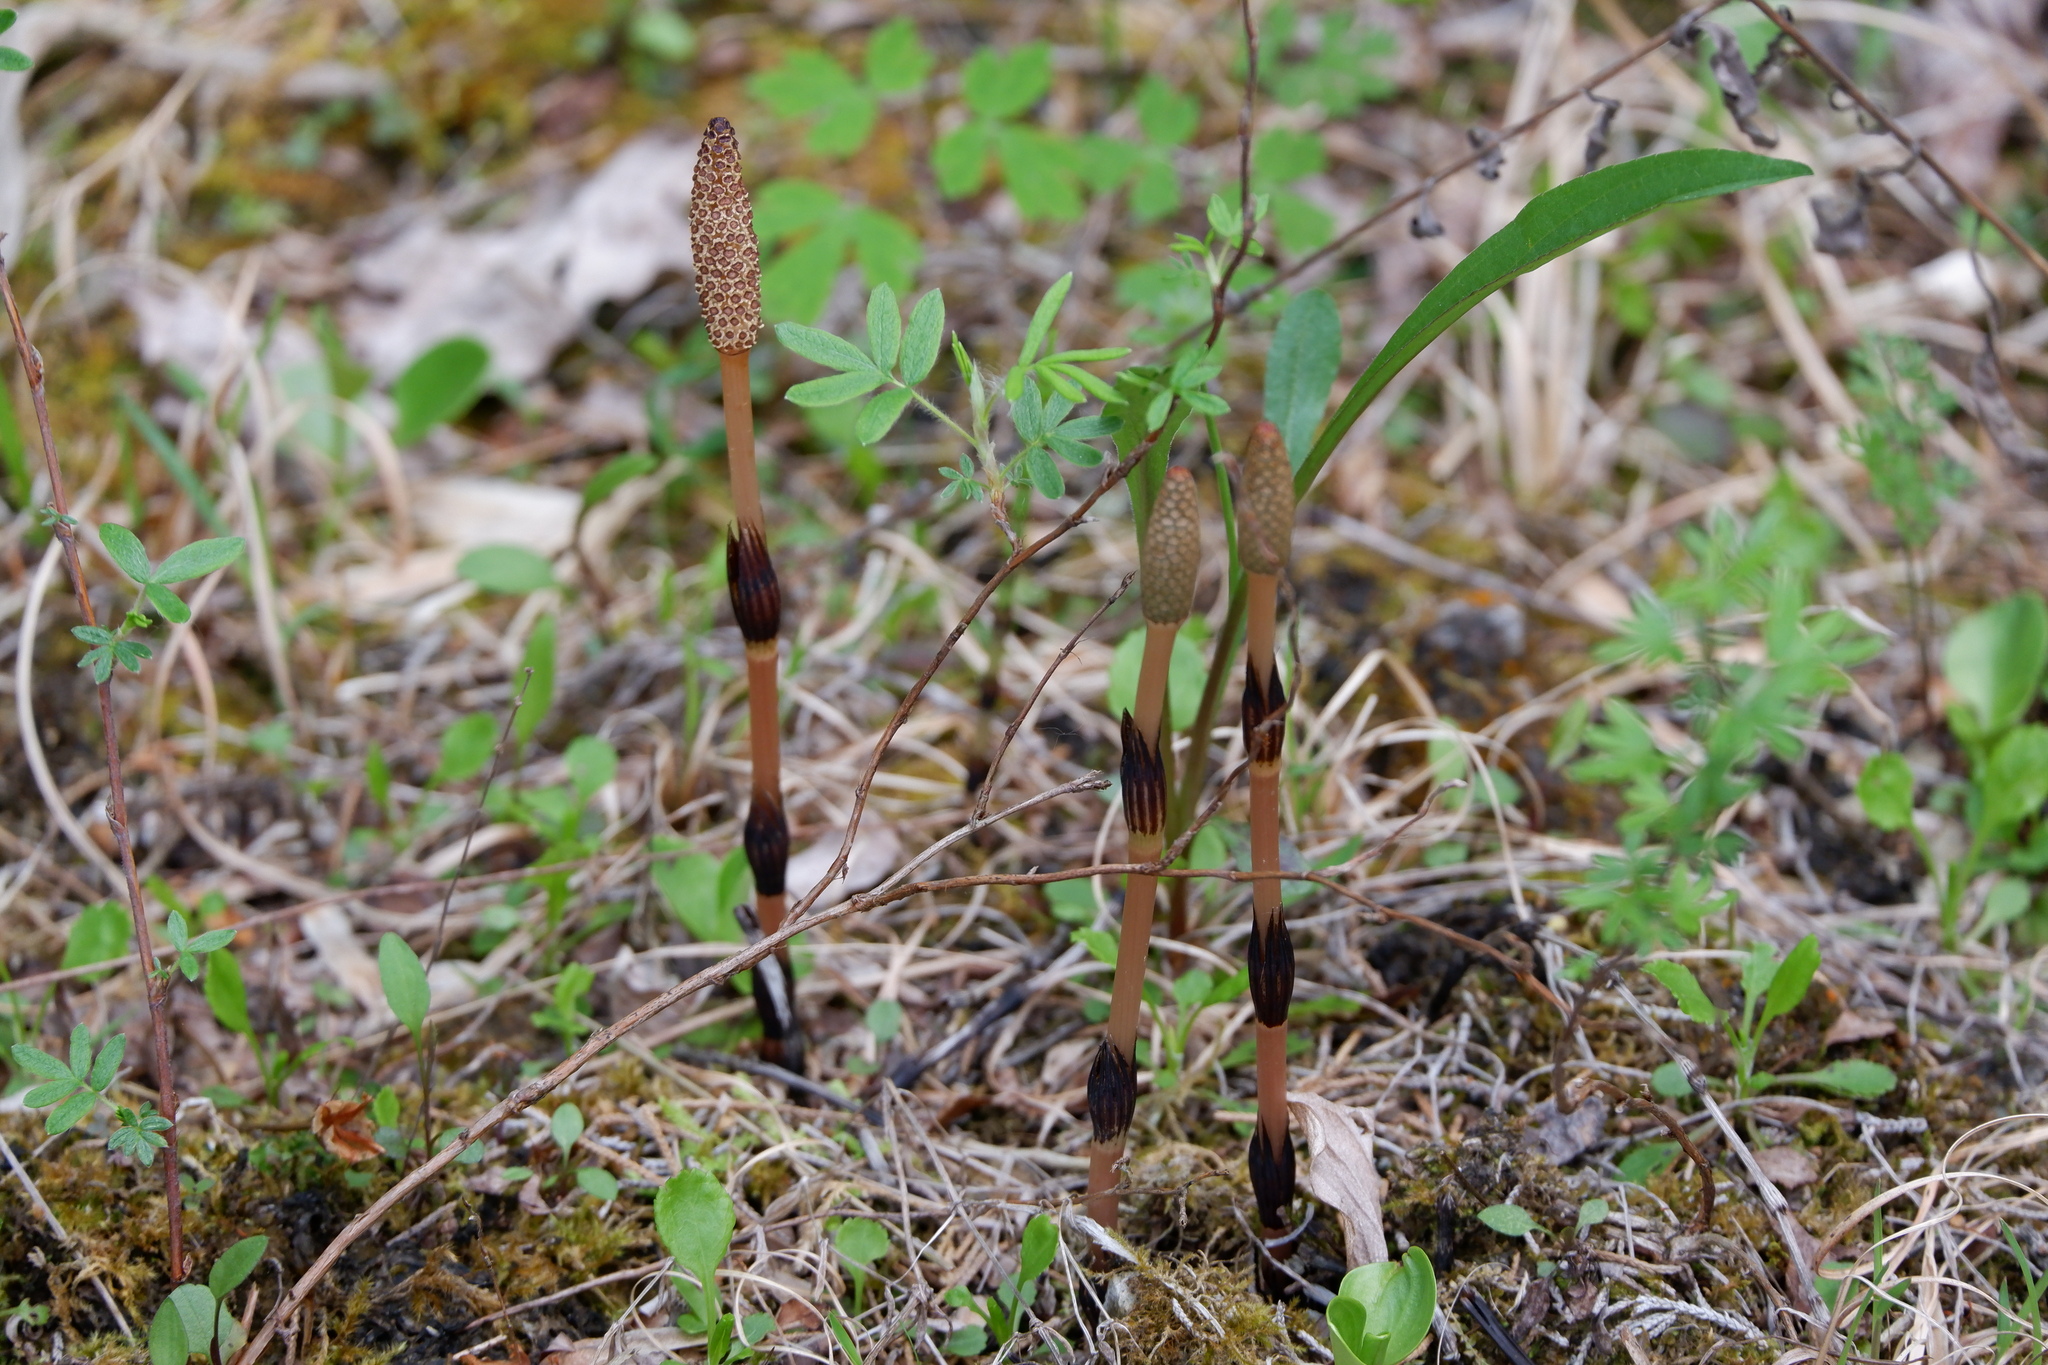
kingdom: Plantae
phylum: Tracheophyta
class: Polypodiopsida
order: Equisetales
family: Equisetaceae
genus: Equisetum
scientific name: Equisetum arvense
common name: Field horsetail
